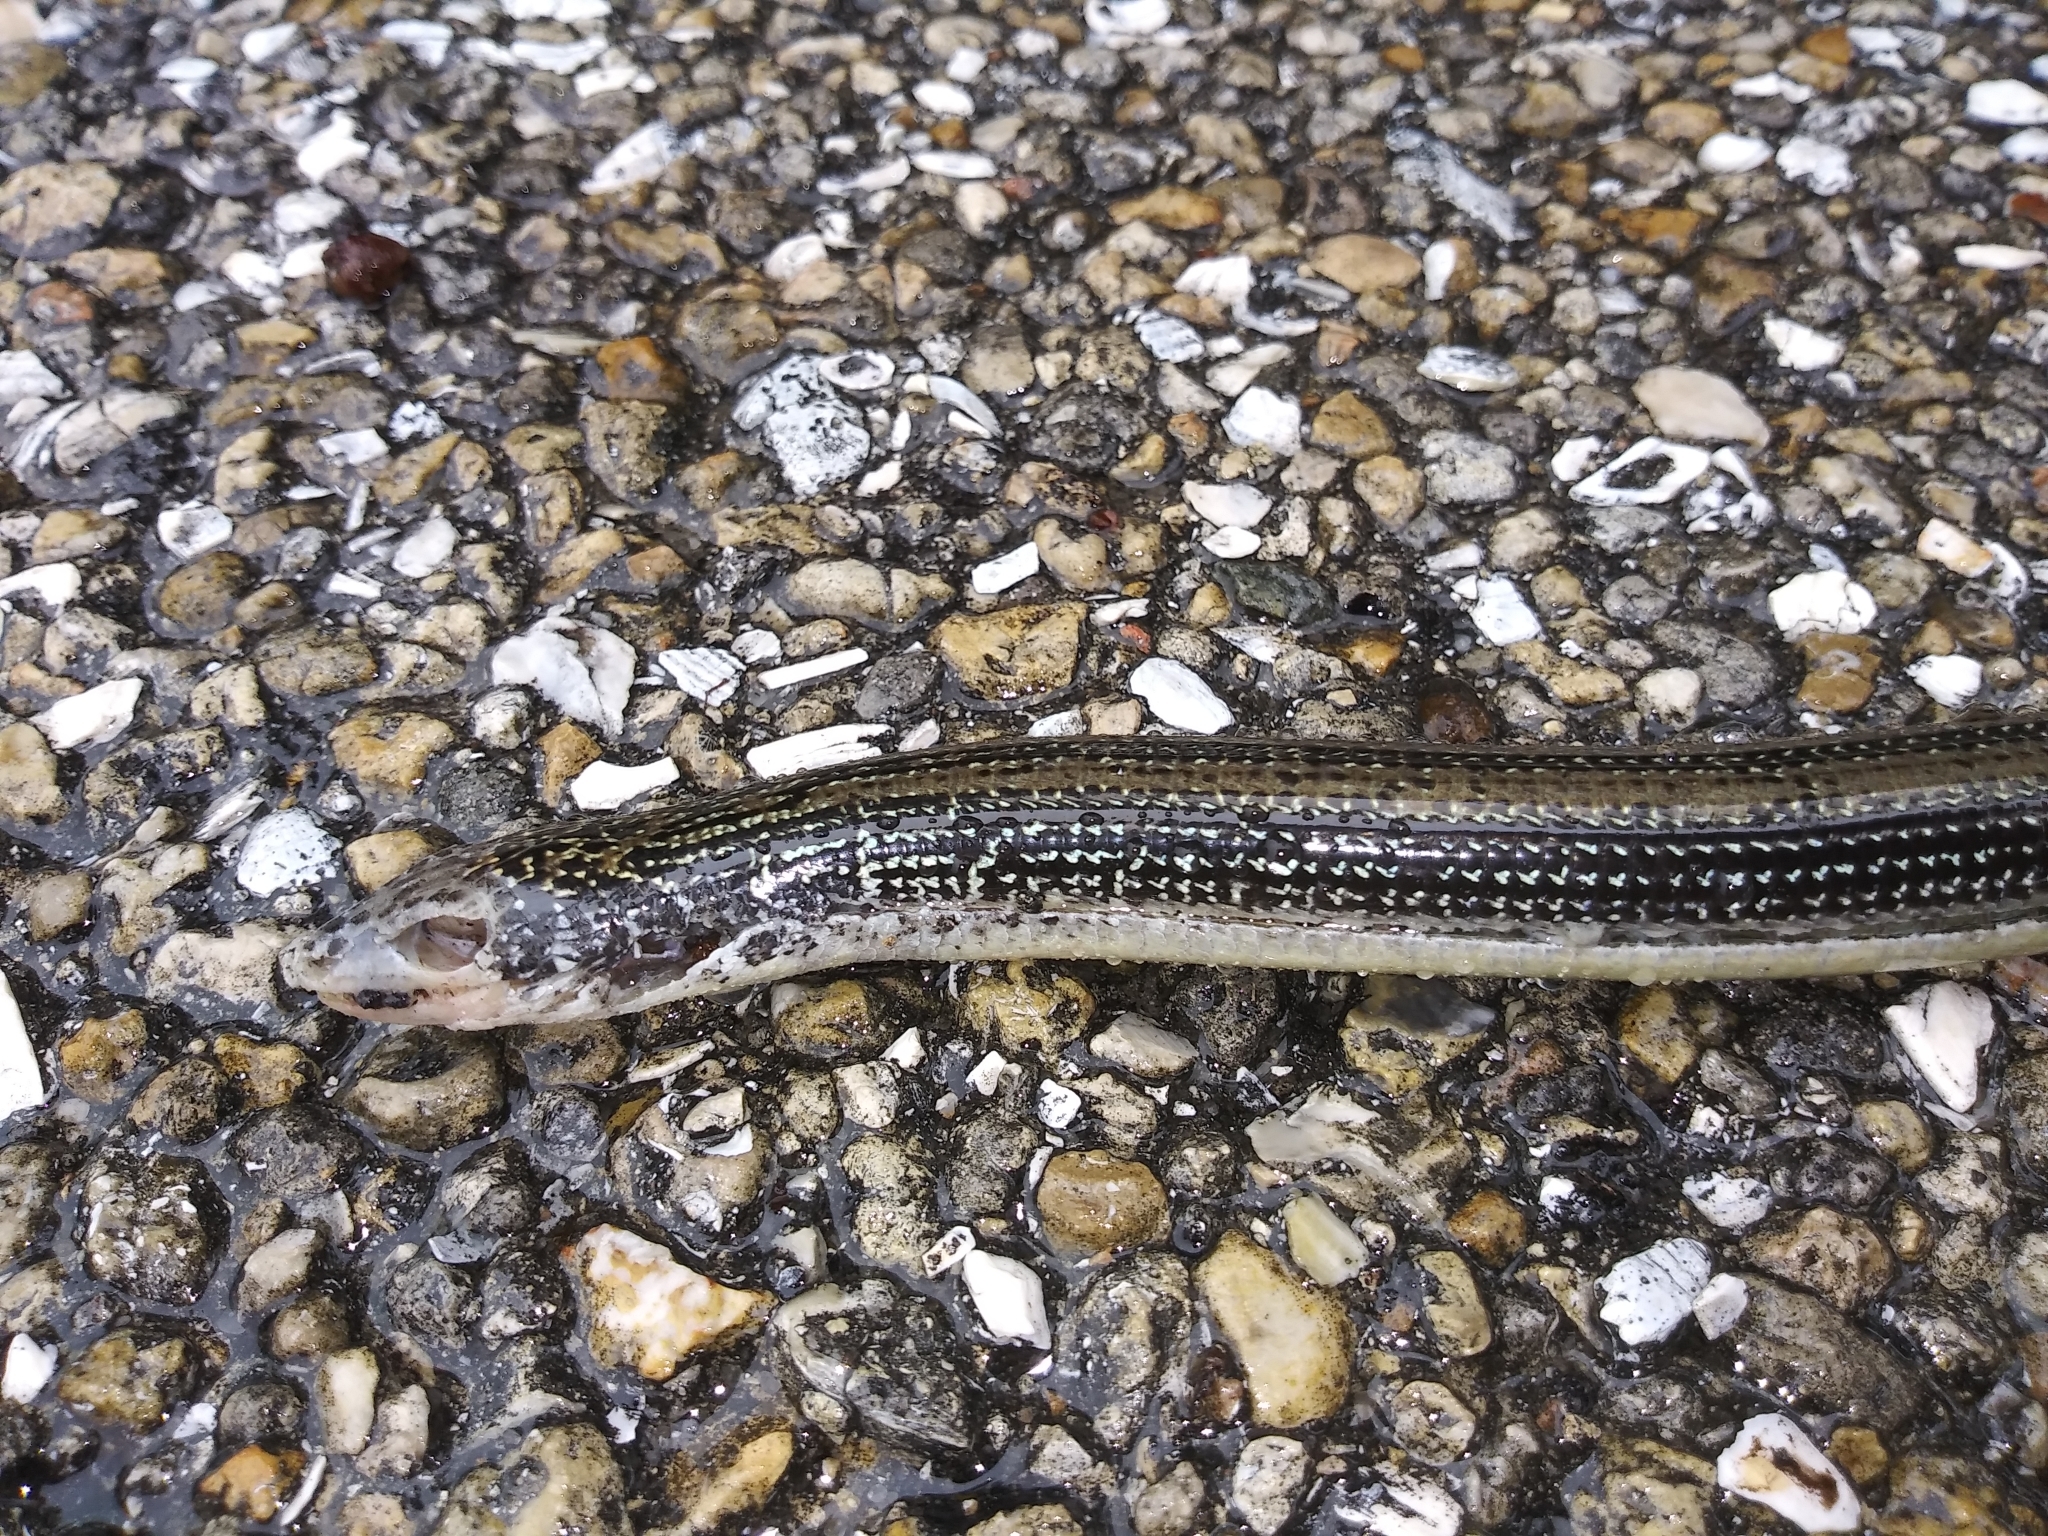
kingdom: Animalia
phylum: Chordata
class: Squamata
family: Anguidae
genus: Ophisaurus
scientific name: Ophisaurus ventralis
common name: Eastern glass lizard
